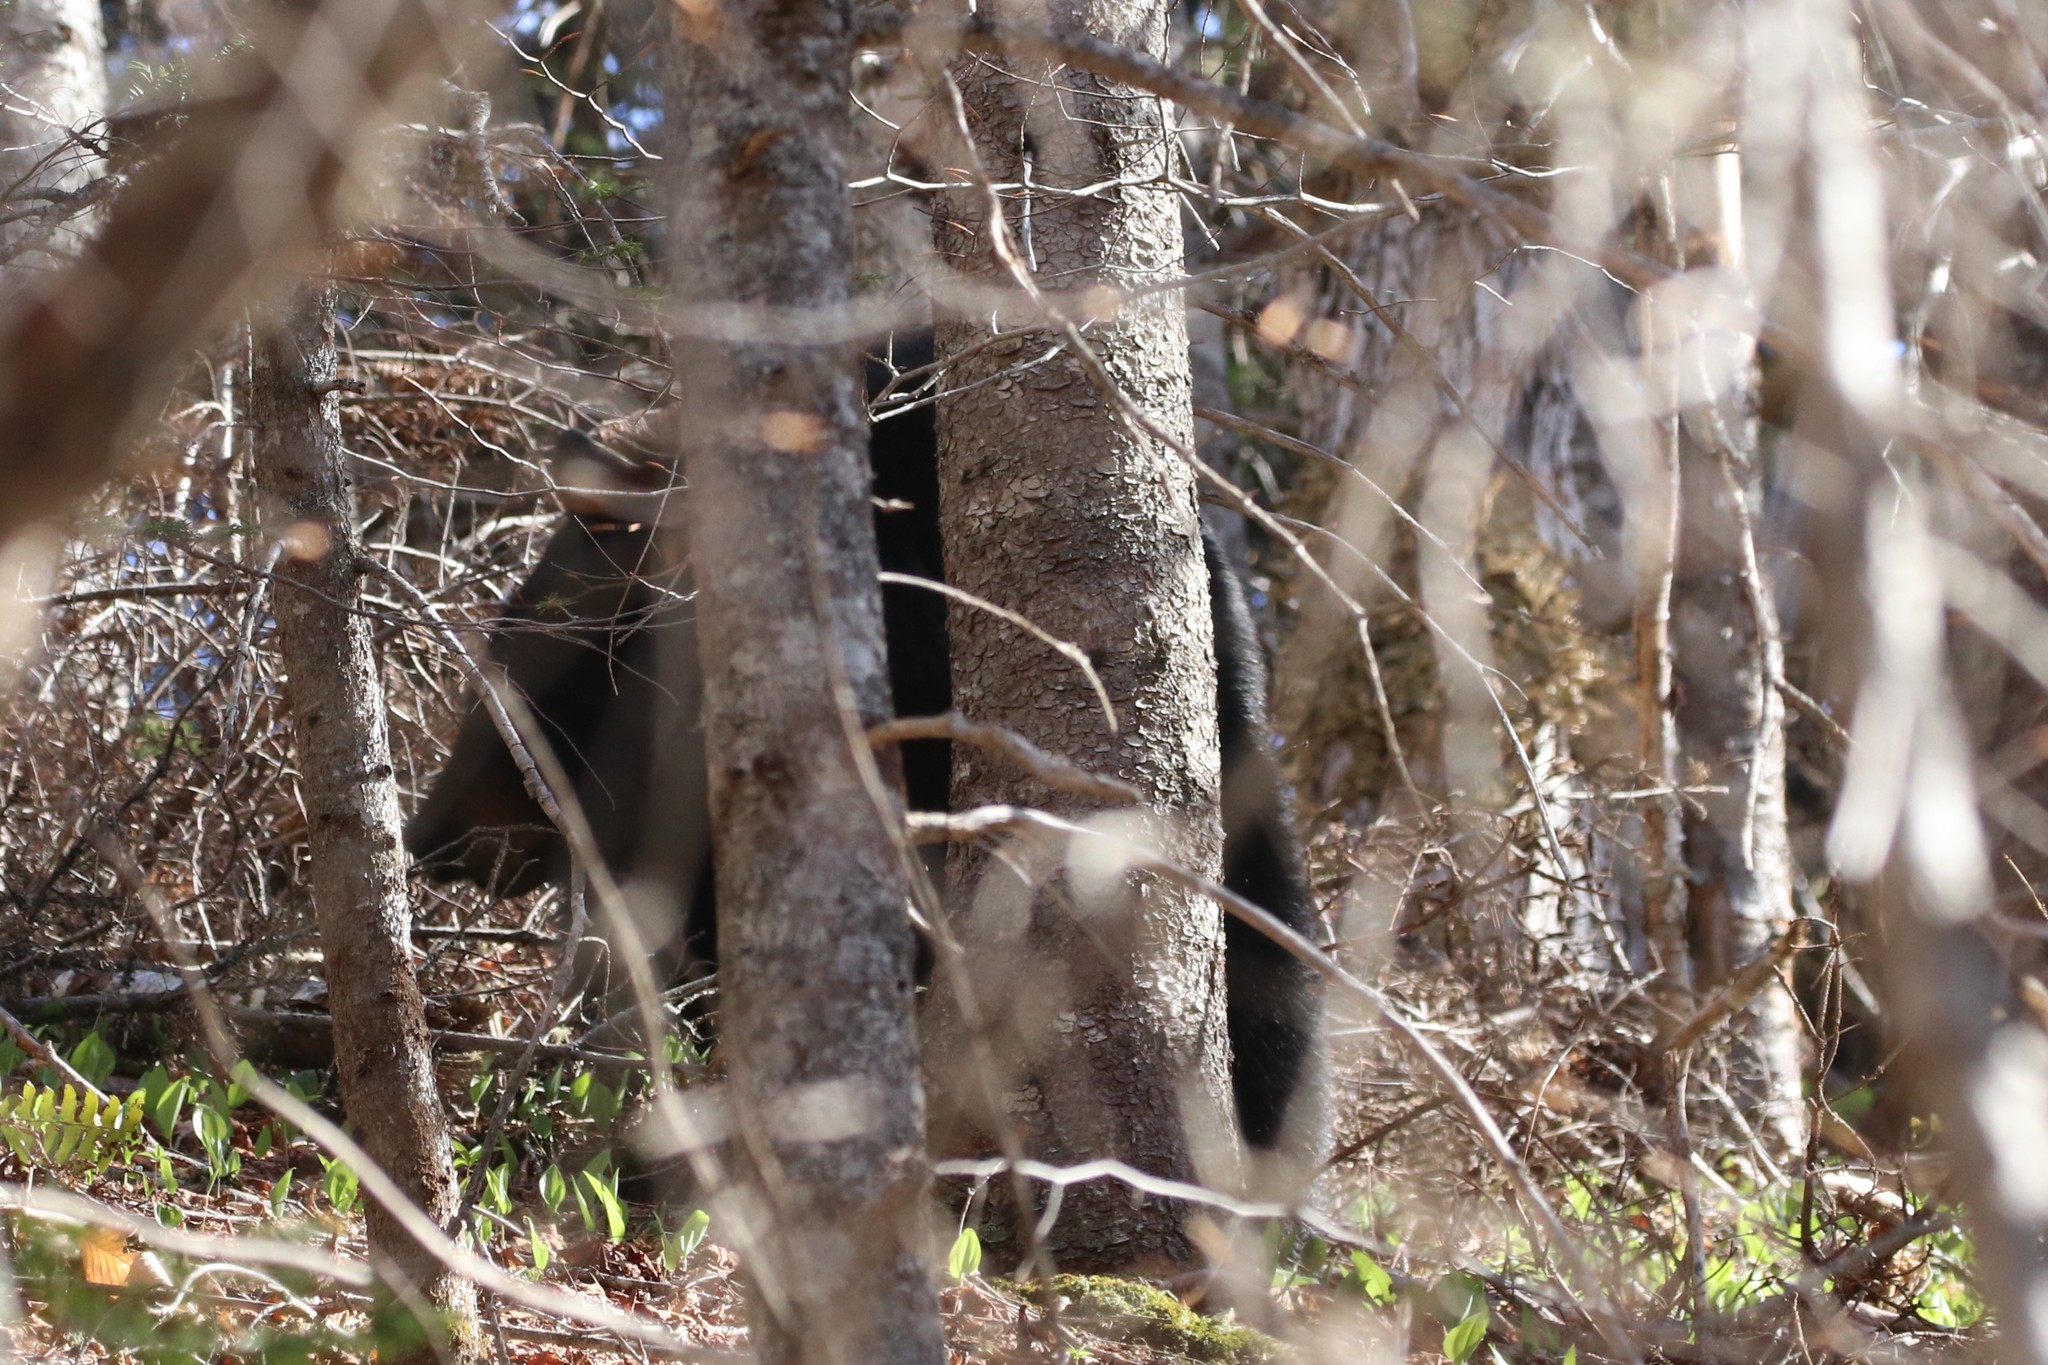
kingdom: Animalia
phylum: Chordata
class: Mammalia
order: Carnivora
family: Ursidae
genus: Ursus
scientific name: Ursus americanus
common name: American black bear
